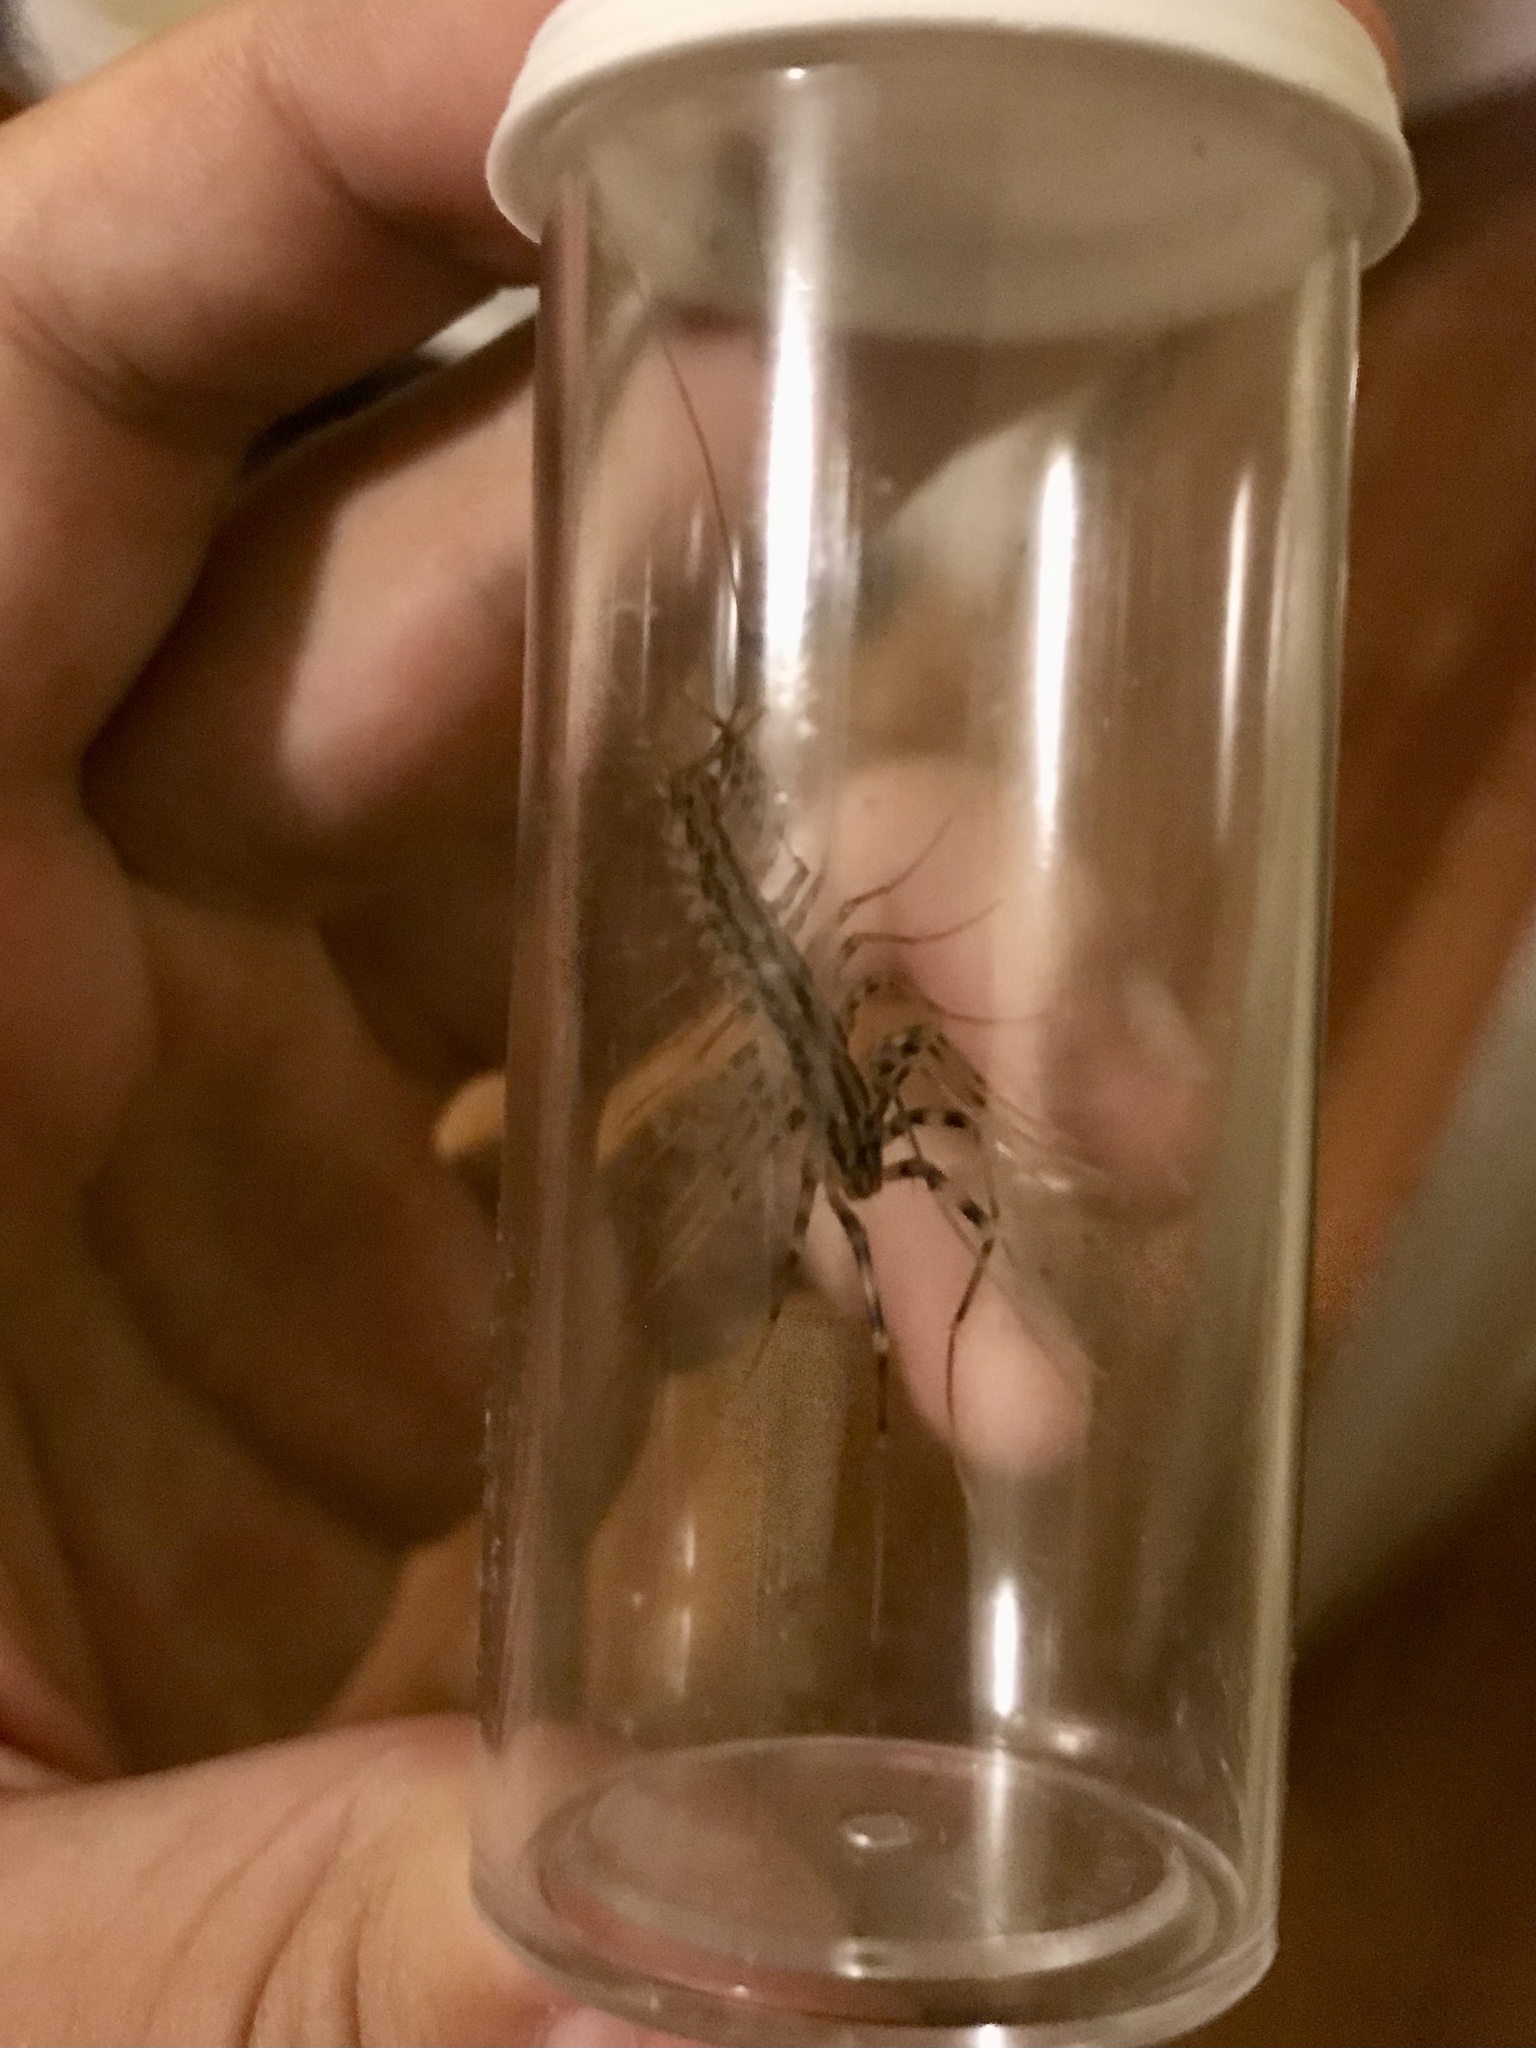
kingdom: Animalia
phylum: Arthropoda
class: Chilopoda
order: Scutigeromorpha
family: Scutigeridae
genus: Scutigera
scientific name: Scutigera coleoptrata
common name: House centipede
